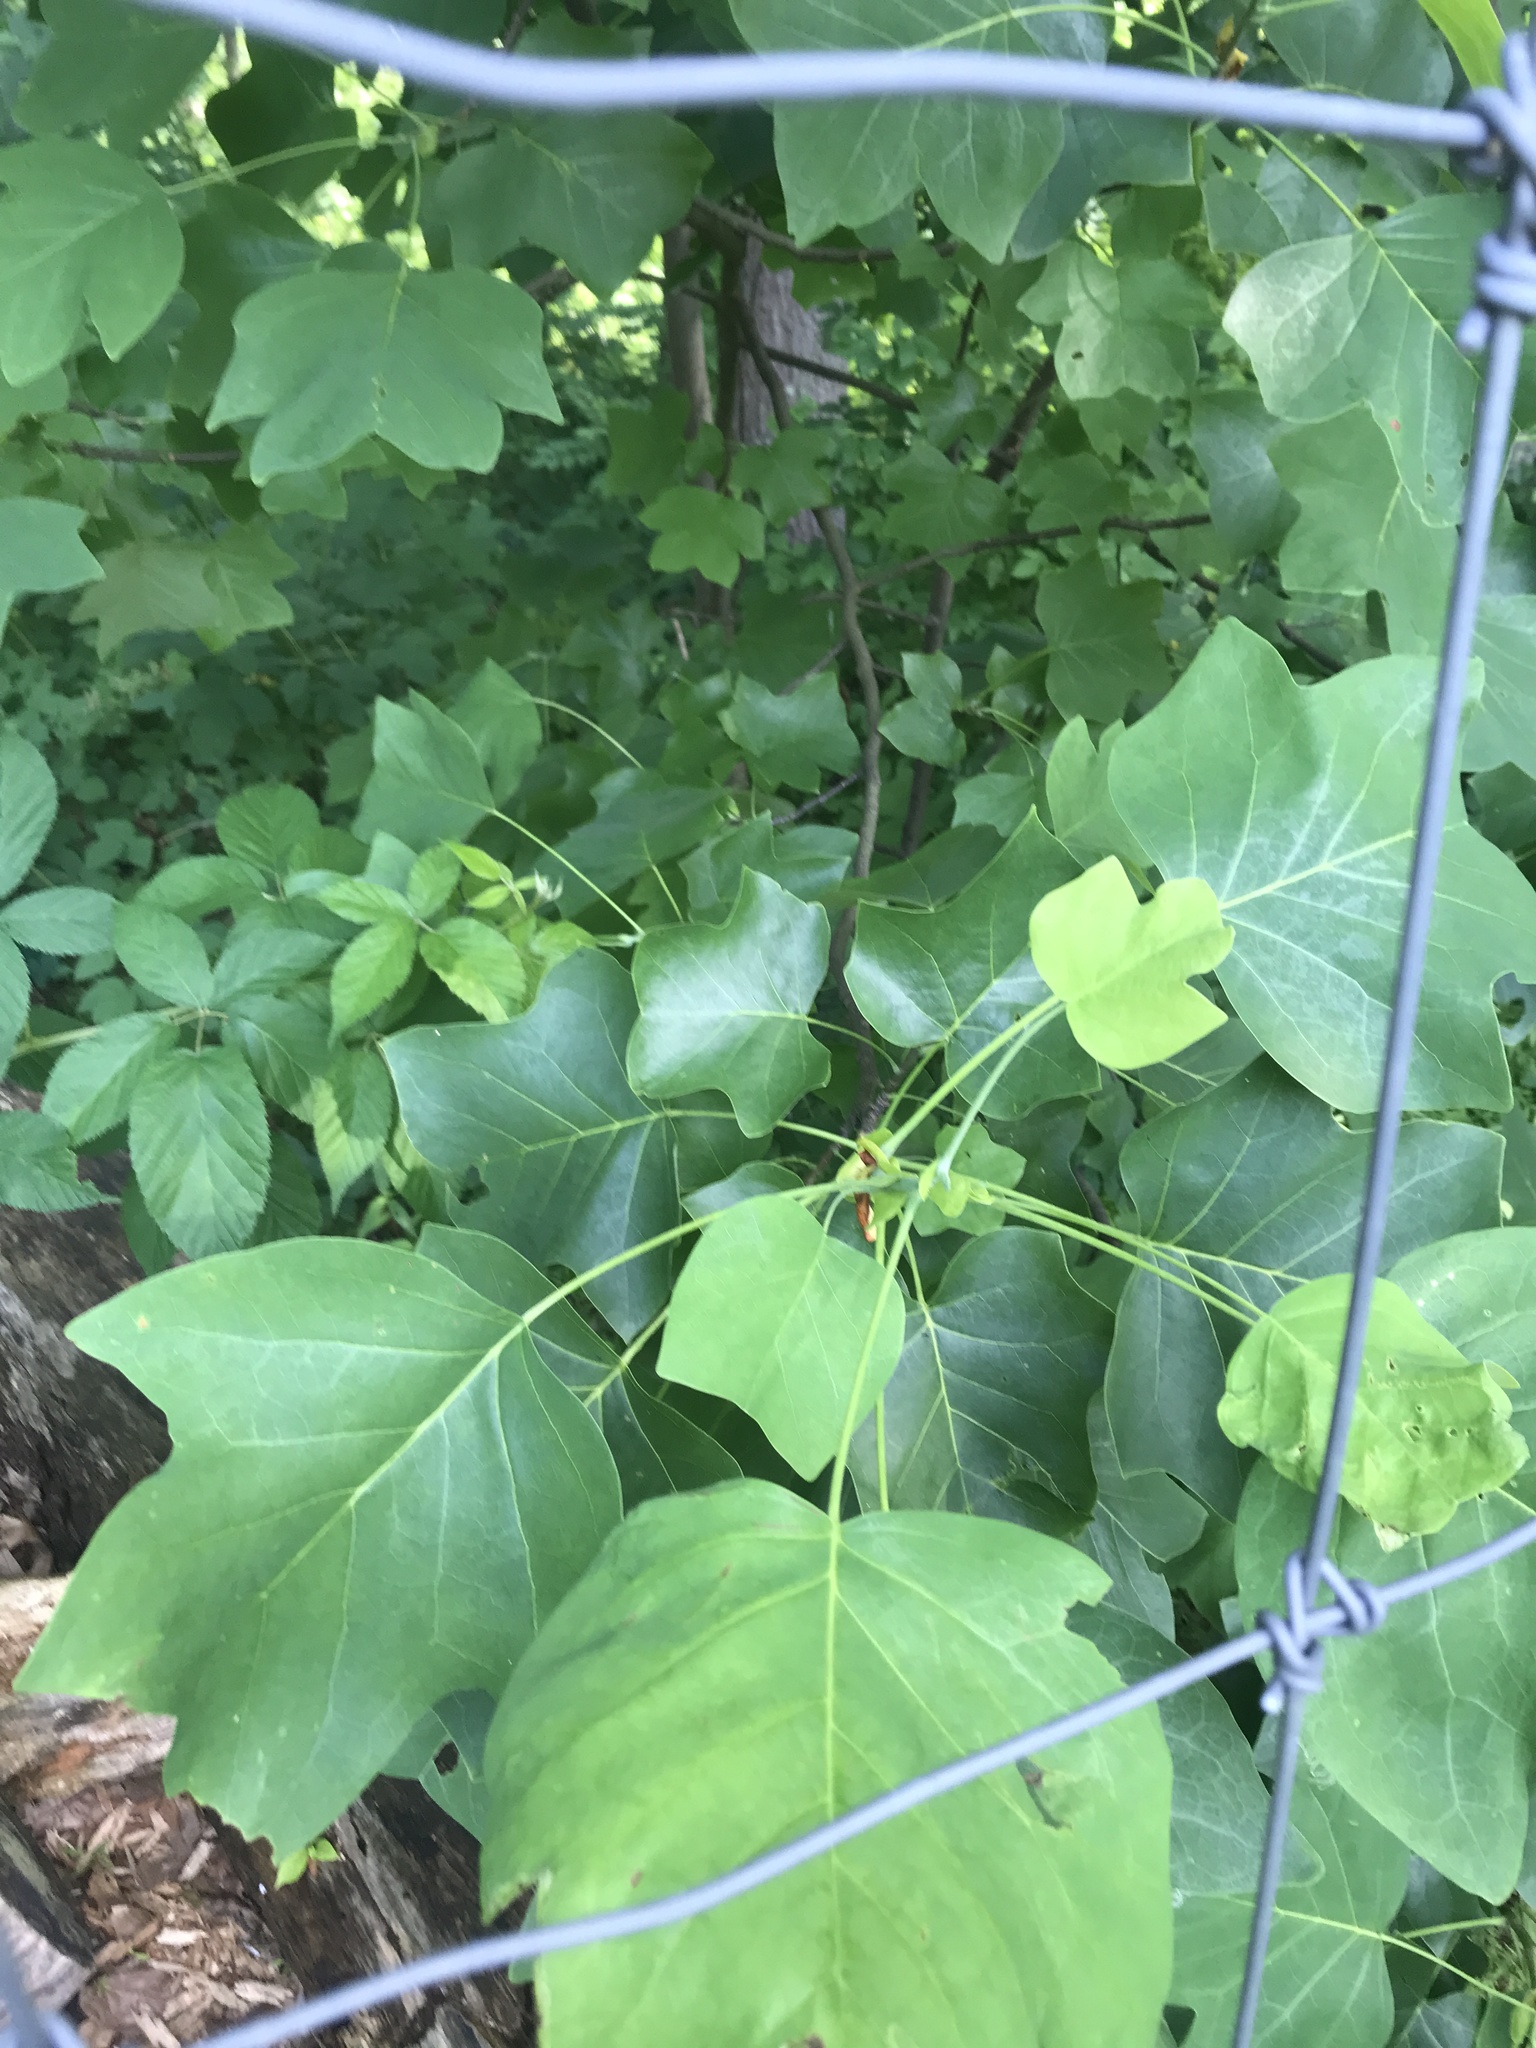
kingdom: Plantae
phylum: Tracheophyta
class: Magnoliopsida
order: Magnoliales
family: Magnoliaceae
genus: Liriodendron
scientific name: Liriodendron tulipifera
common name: Tulip tree
